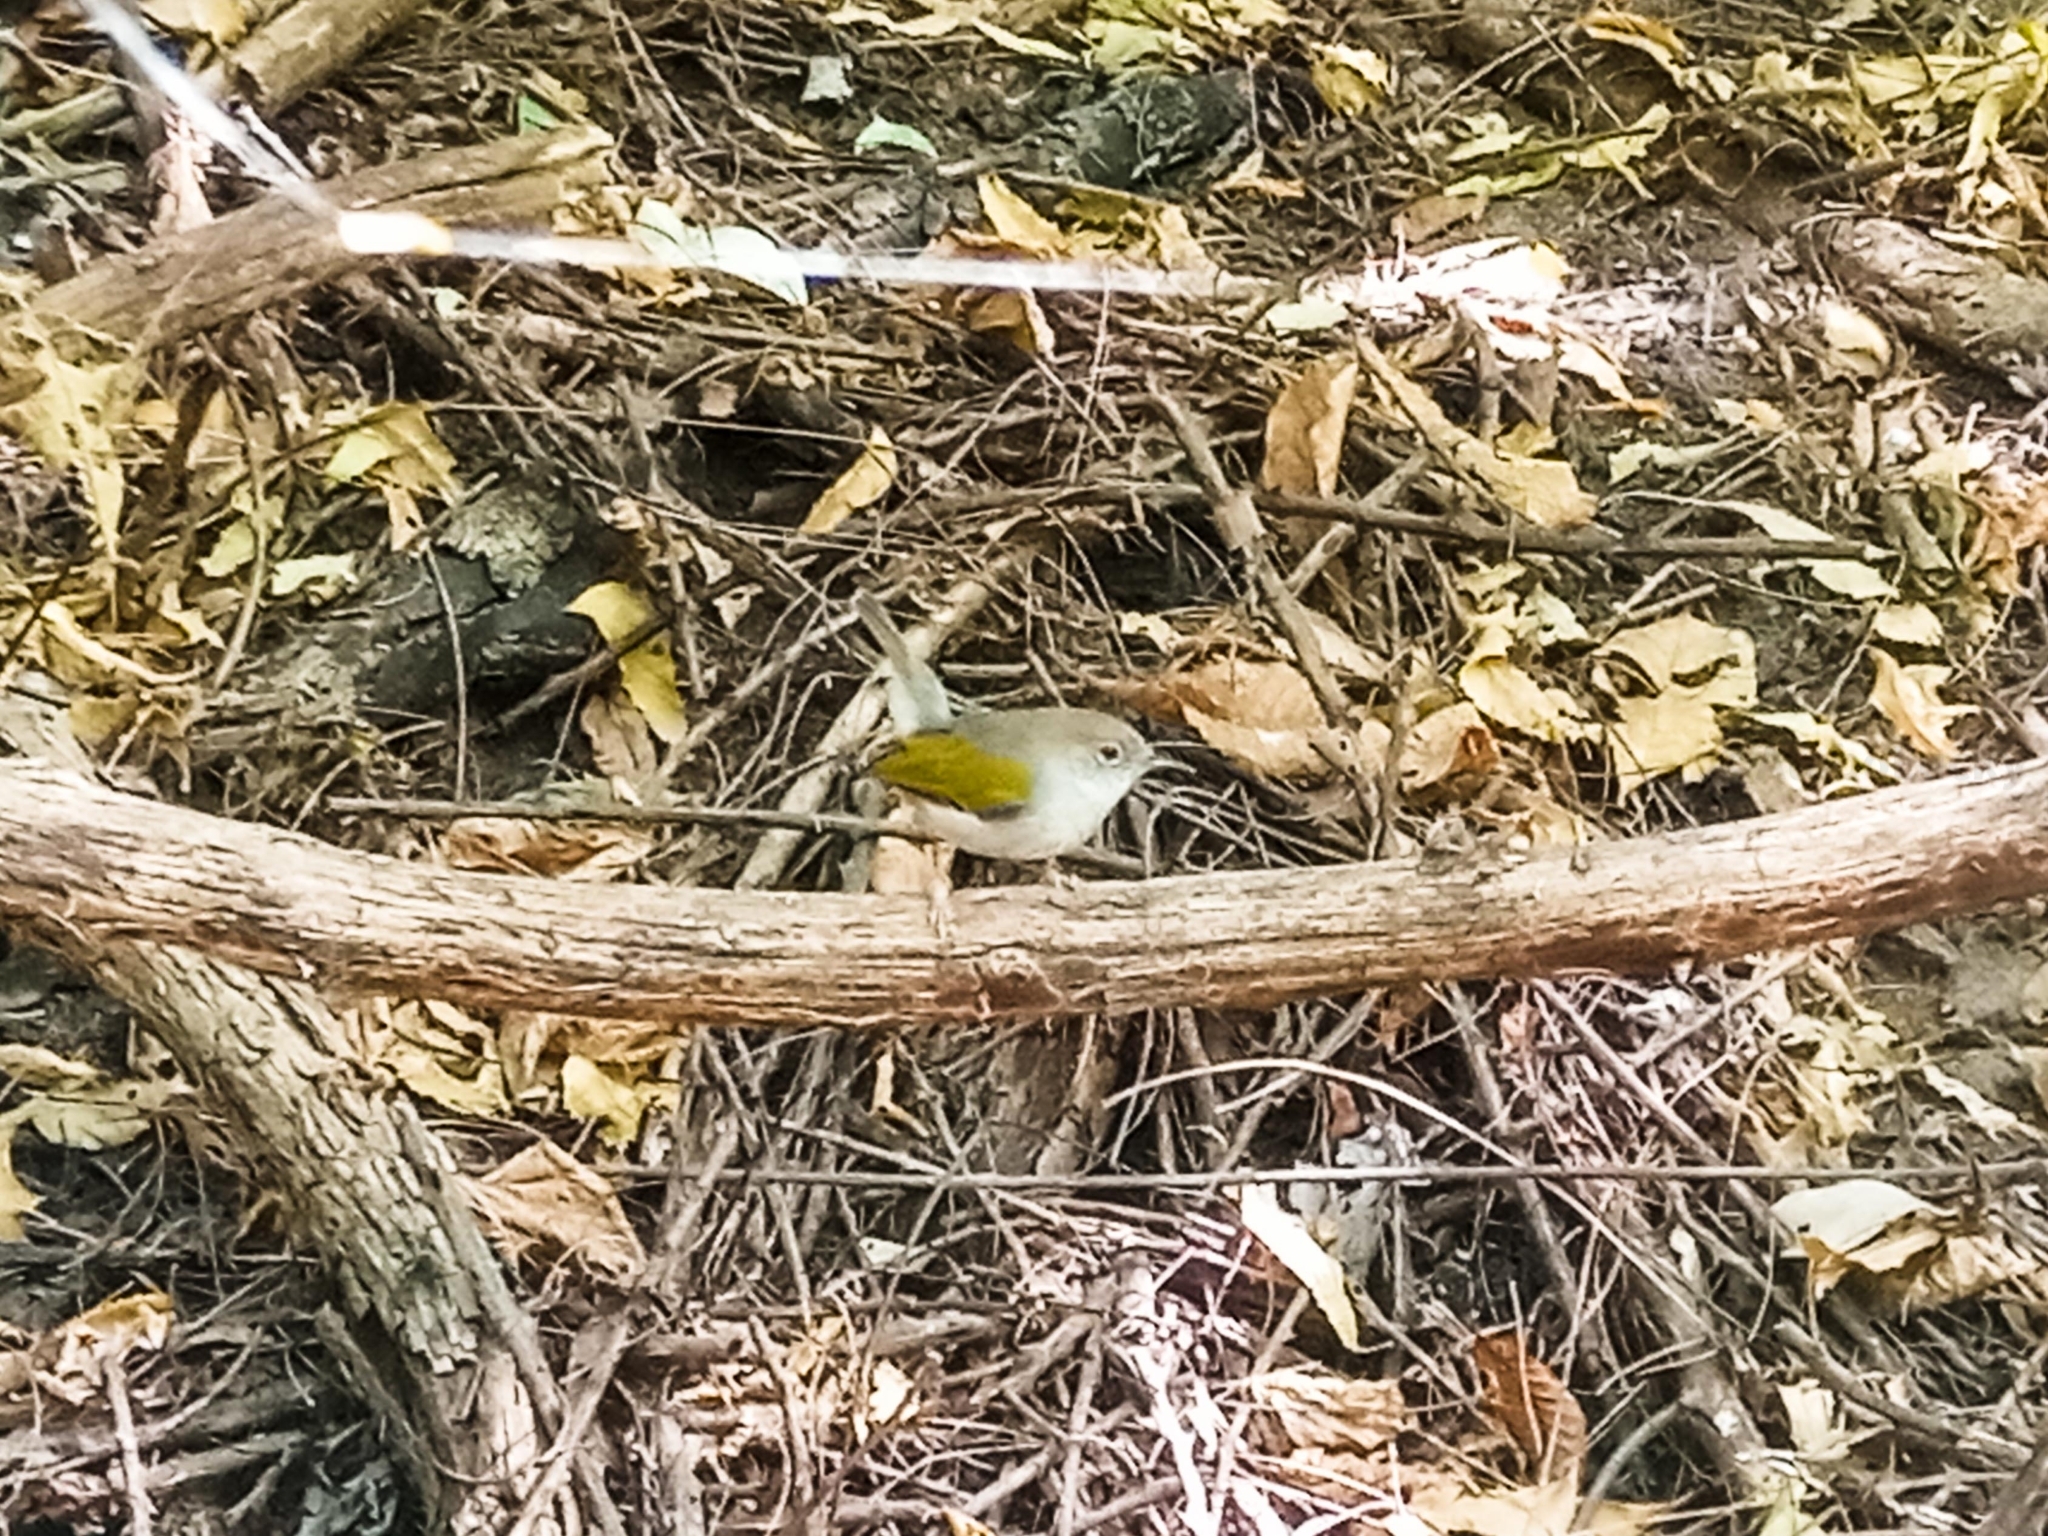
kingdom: Animalia
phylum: Chordata
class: Aves
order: Passeriformes
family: Cisticolidae
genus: Camaroptera
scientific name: Camaroptera brachyura
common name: Green-backed camaroptera
